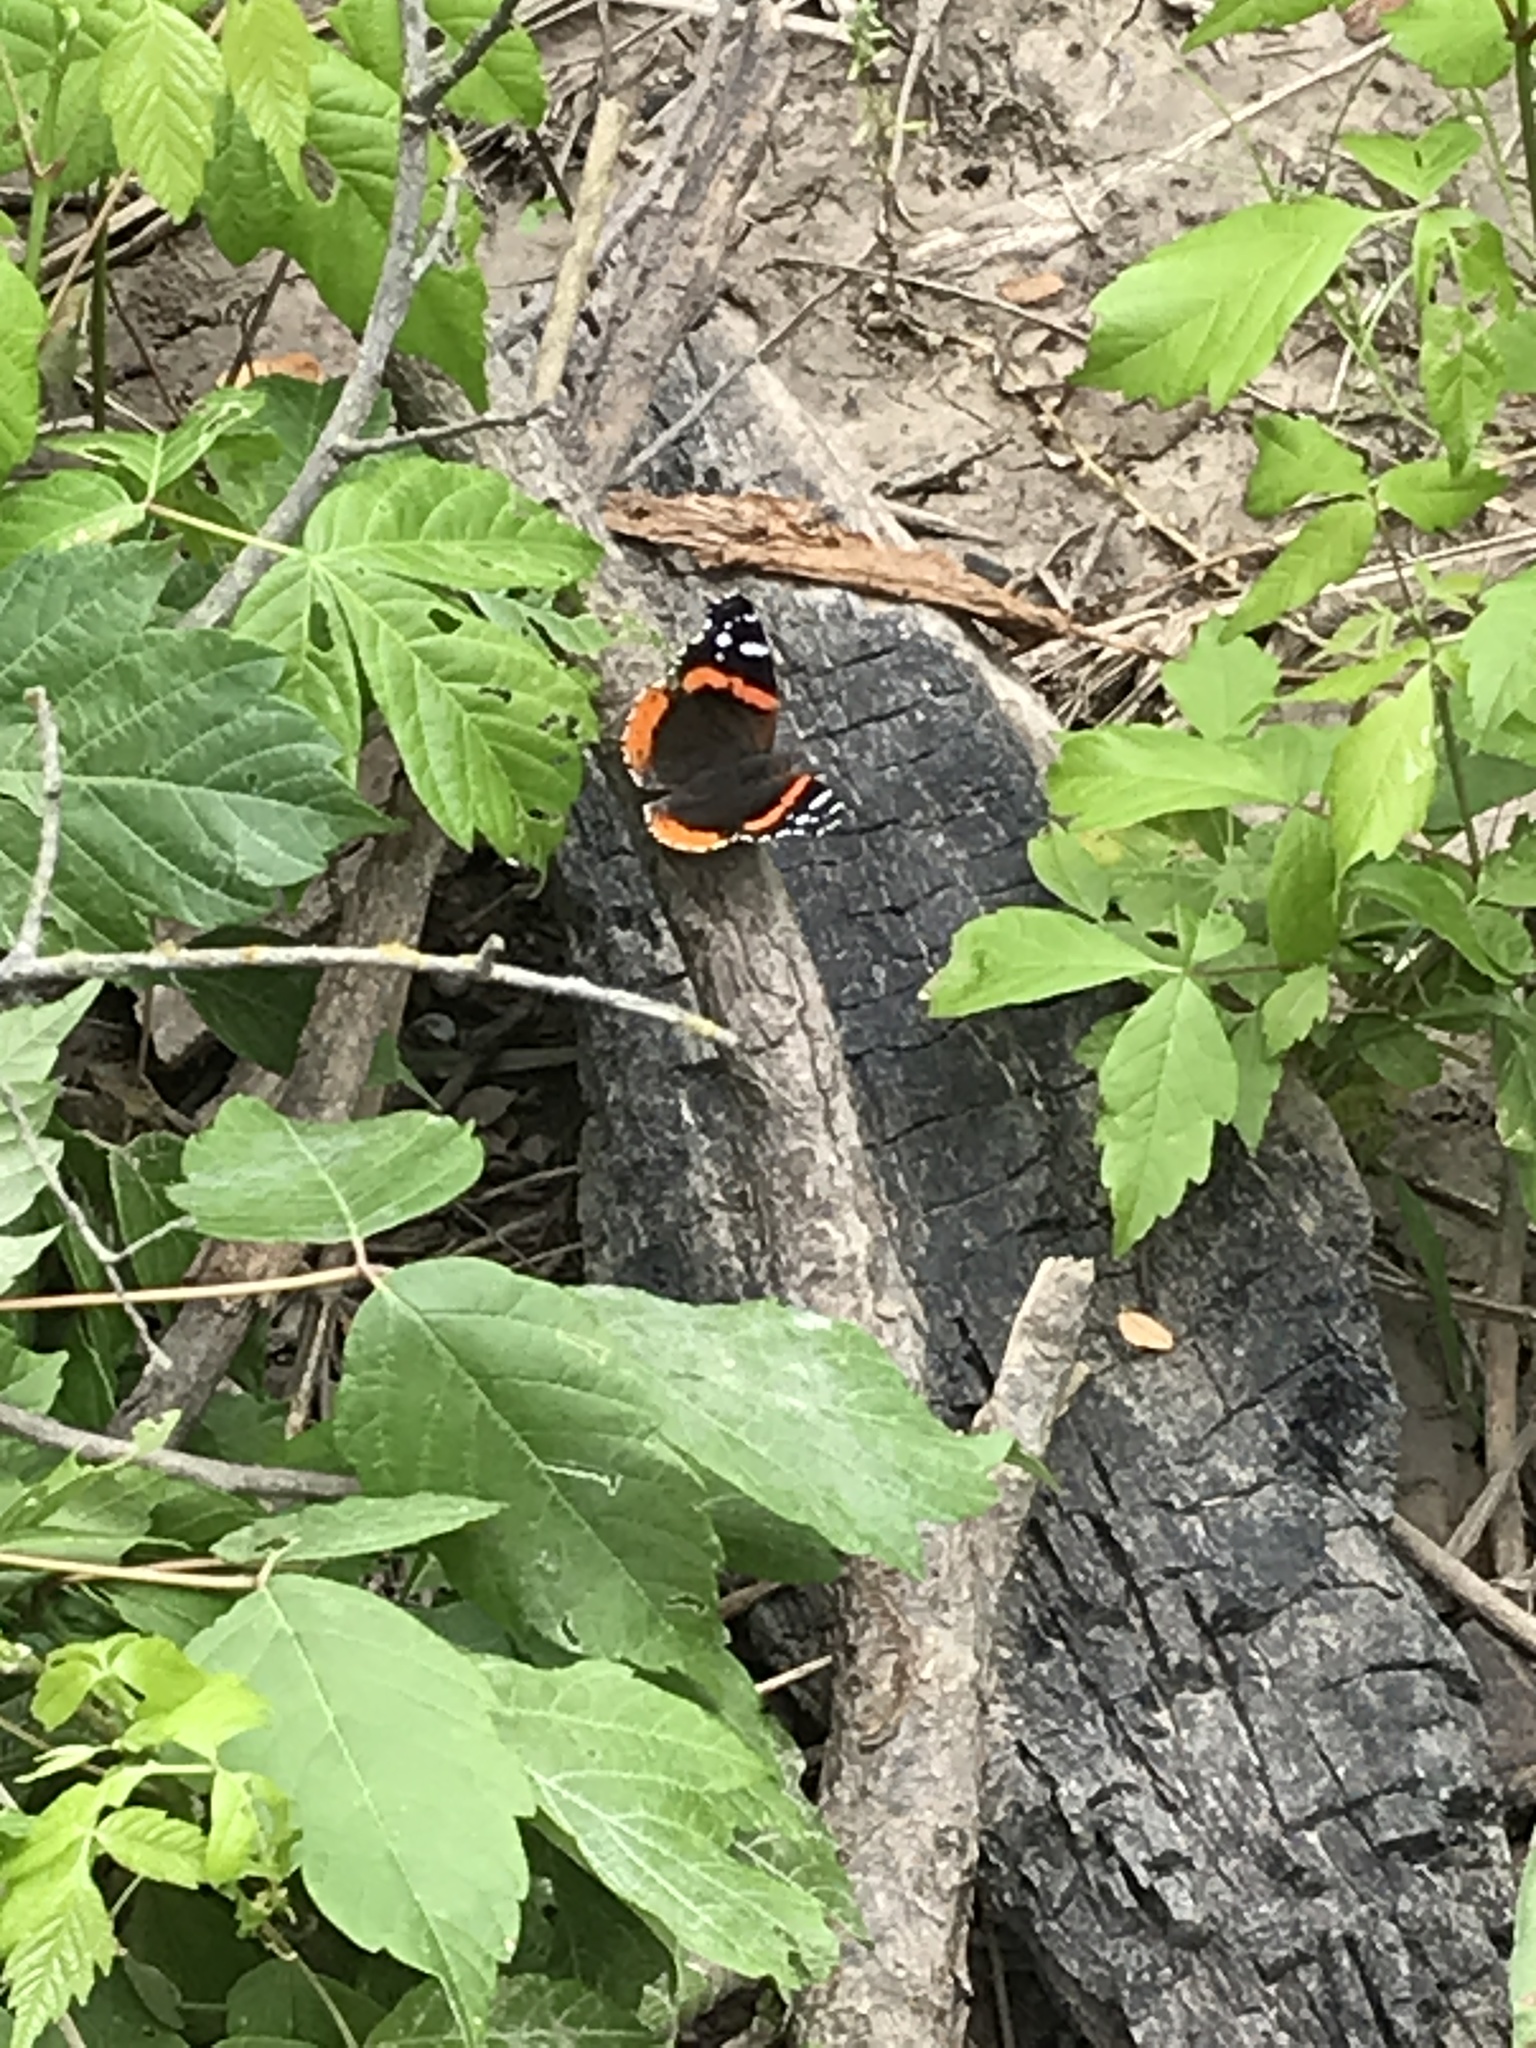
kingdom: Animalia
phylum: Arthropoda
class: Insecta
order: Lepidoptera
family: Nymphalidae
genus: Vanessa
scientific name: Vanessa atalanta
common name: Red admiral
